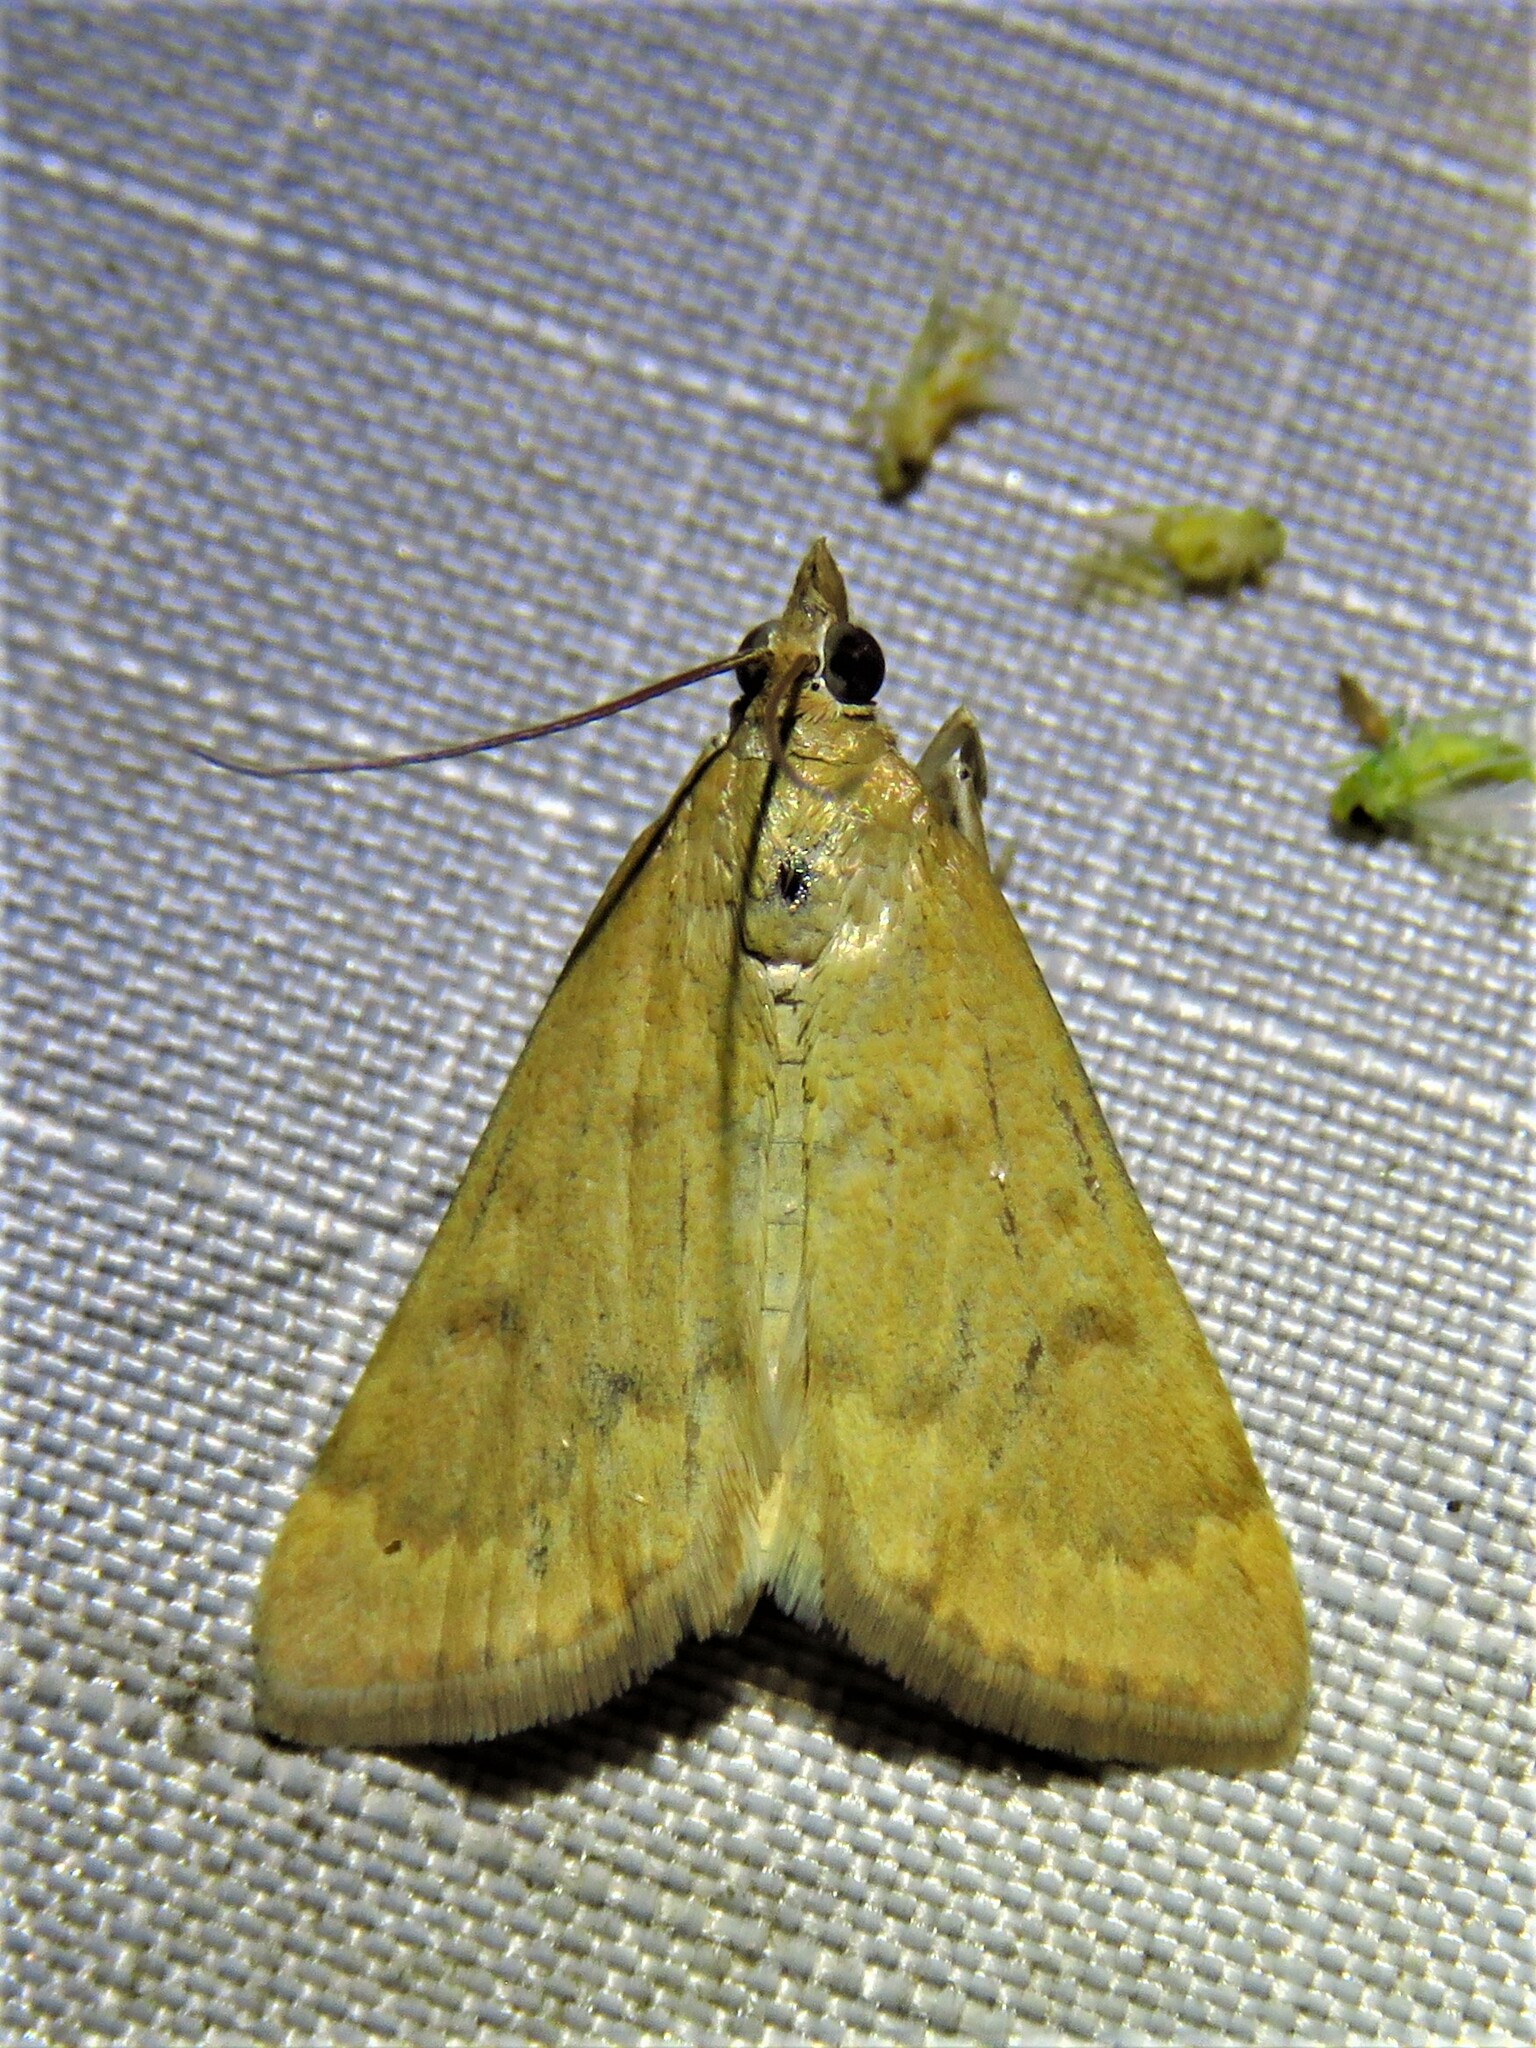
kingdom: Animalia
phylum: Arthropoda
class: Insecta
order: Lepidoptera
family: Crambidae
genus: Achyra
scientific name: Achyra rantalis
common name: Garden webworm
